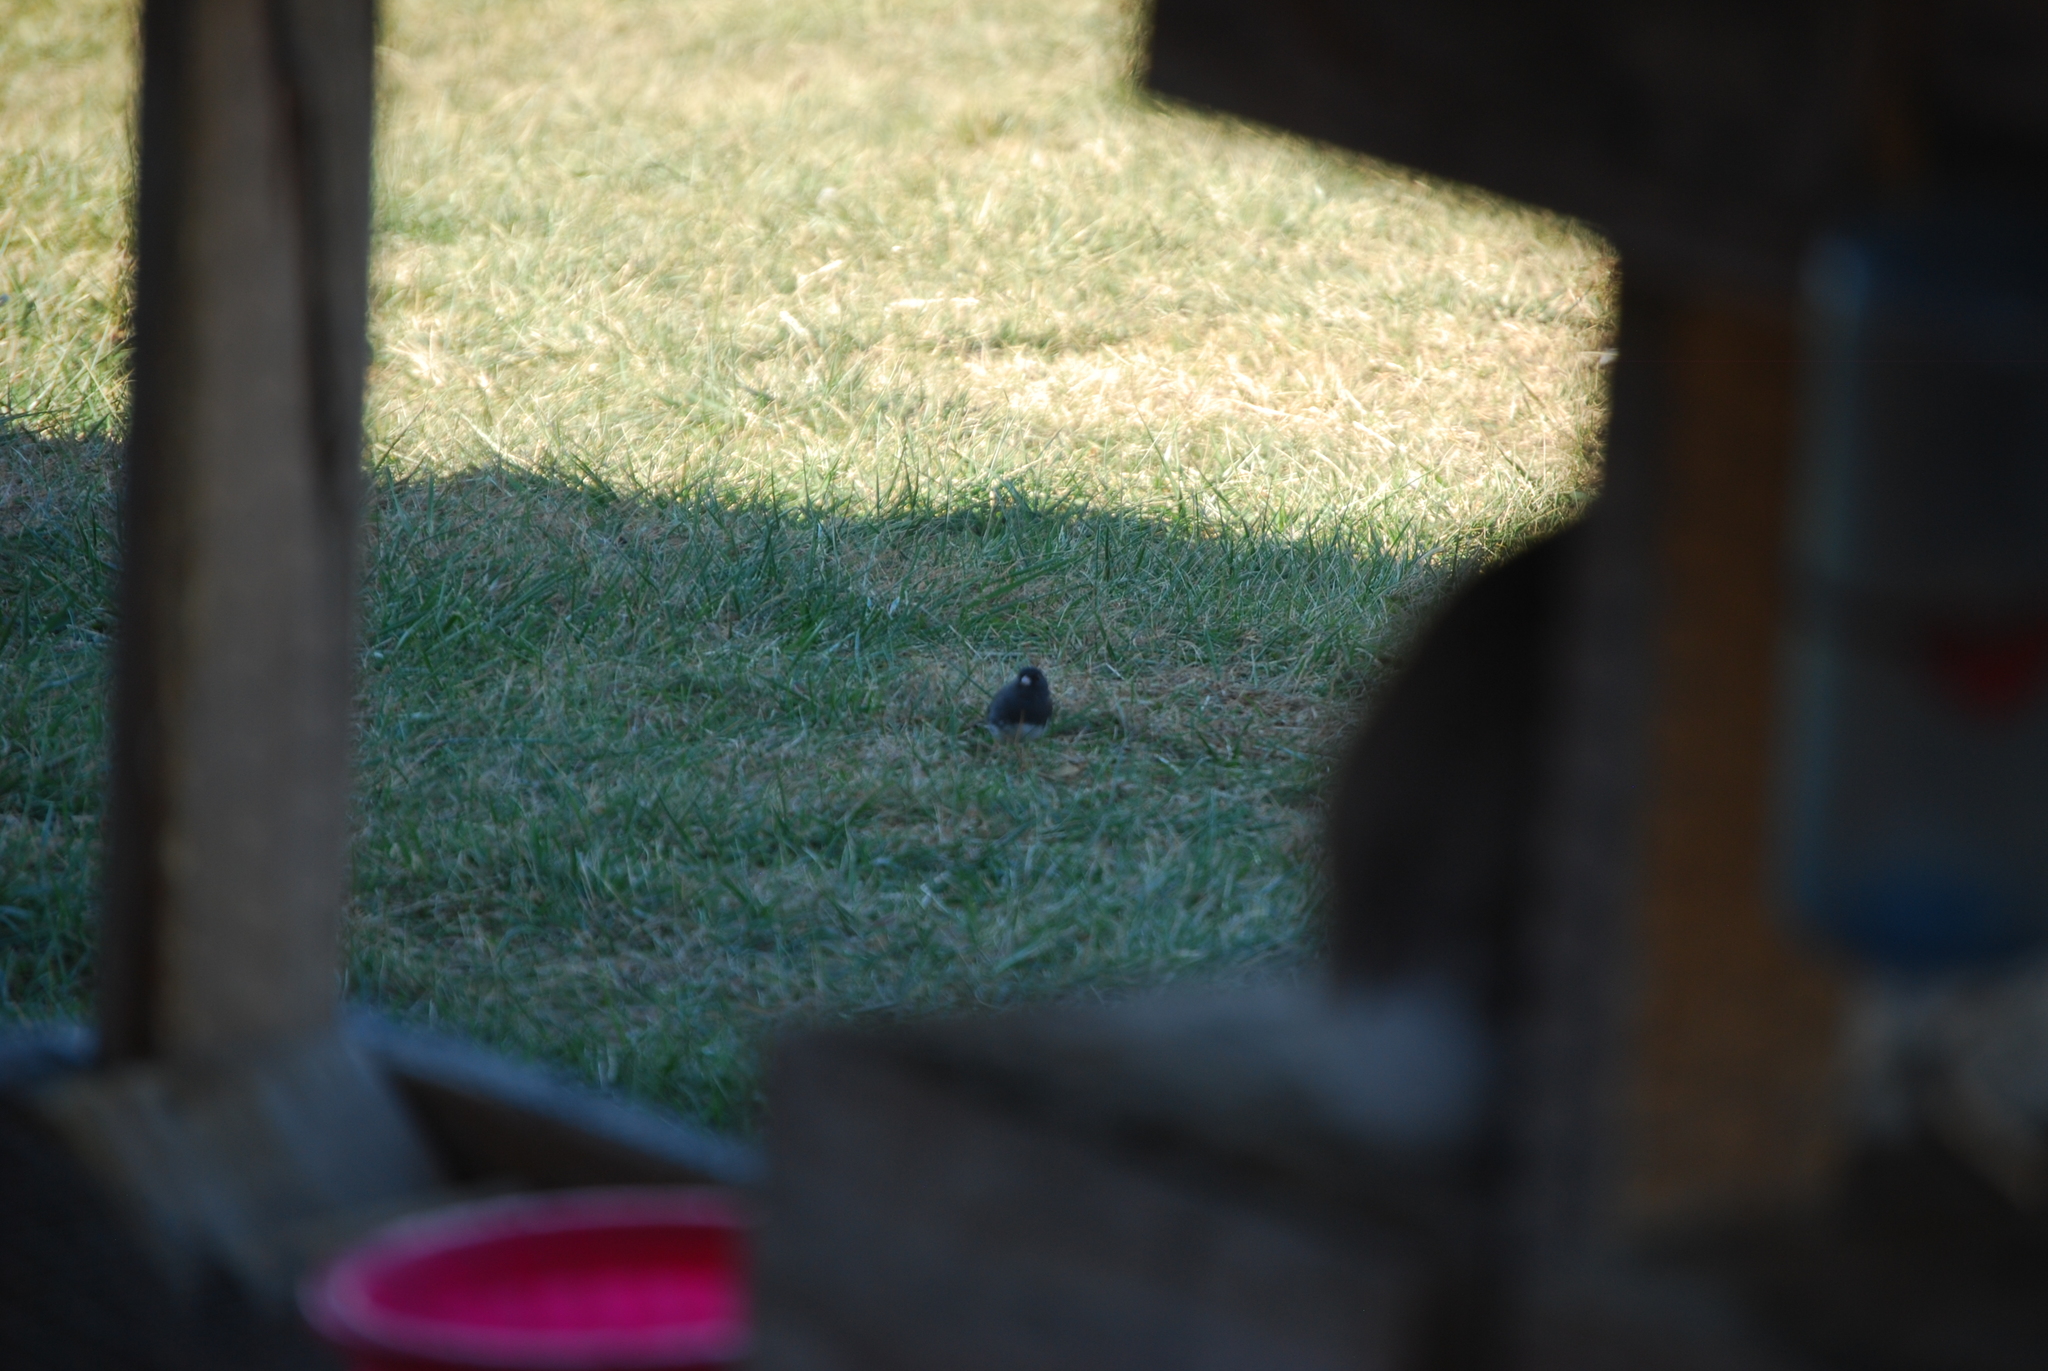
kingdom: Animalia
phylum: Chordata
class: Aves
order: Passeriformes
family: Passerellidae
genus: Junco
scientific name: Junco hyemalis
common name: Dark-eyed junco
